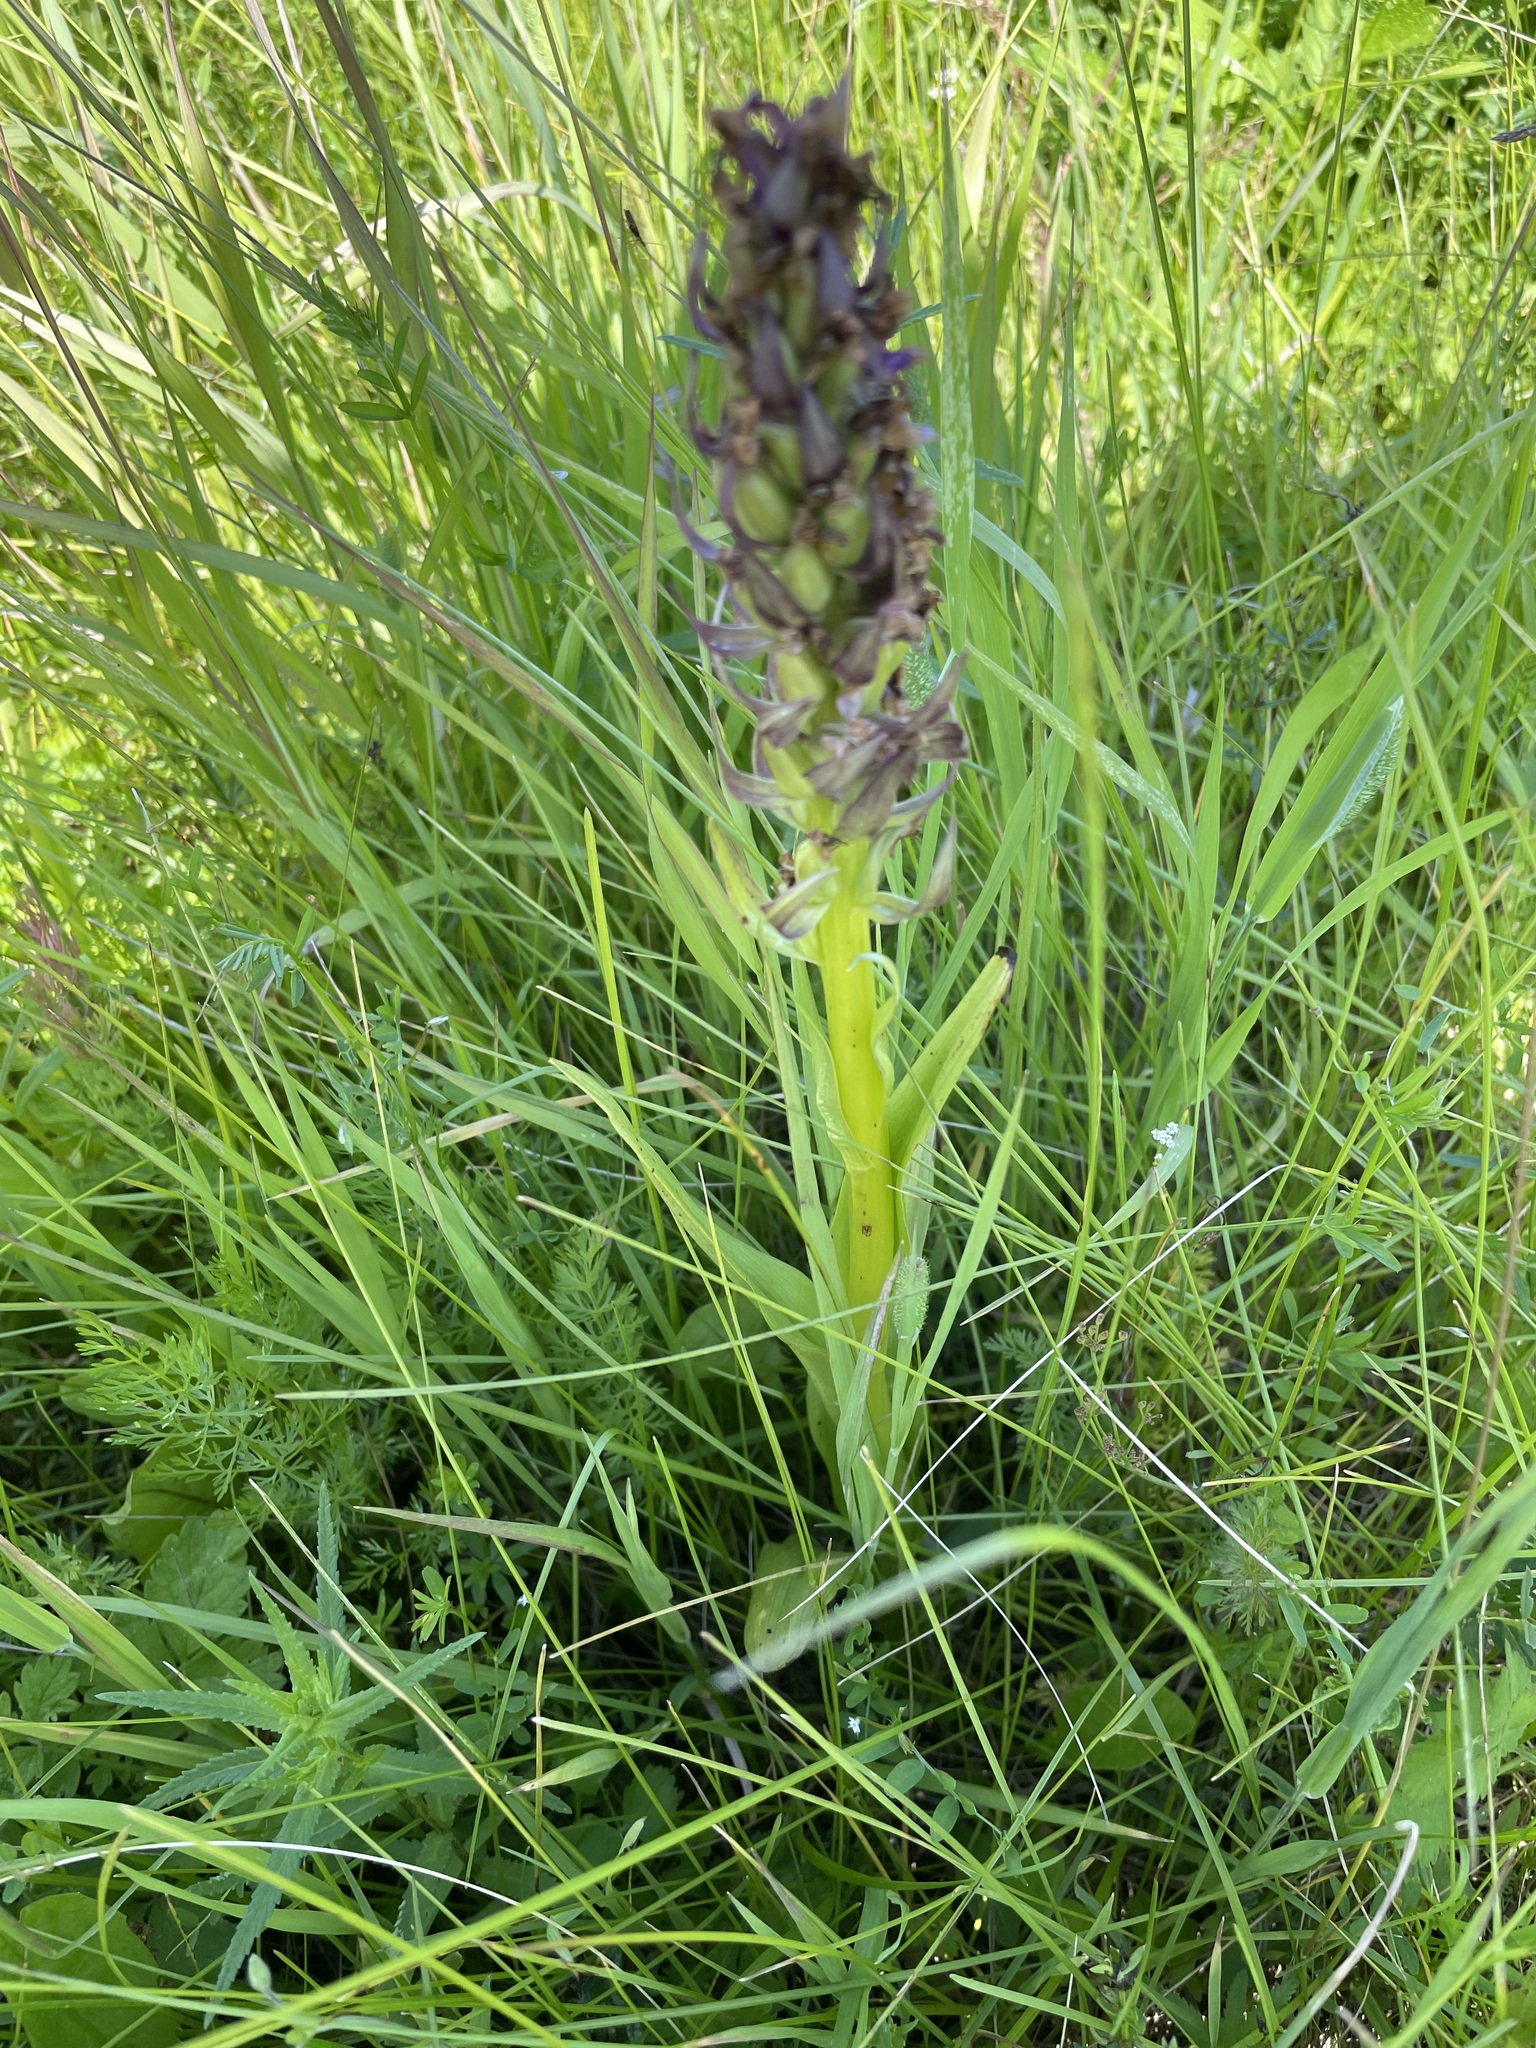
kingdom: Plantae
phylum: Tracheophyta
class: Liliopsida
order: Asparagales
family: Orchidaceae
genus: Dactylorhiza
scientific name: Dactylorhiza incarnata
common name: Early marsh-orchid
